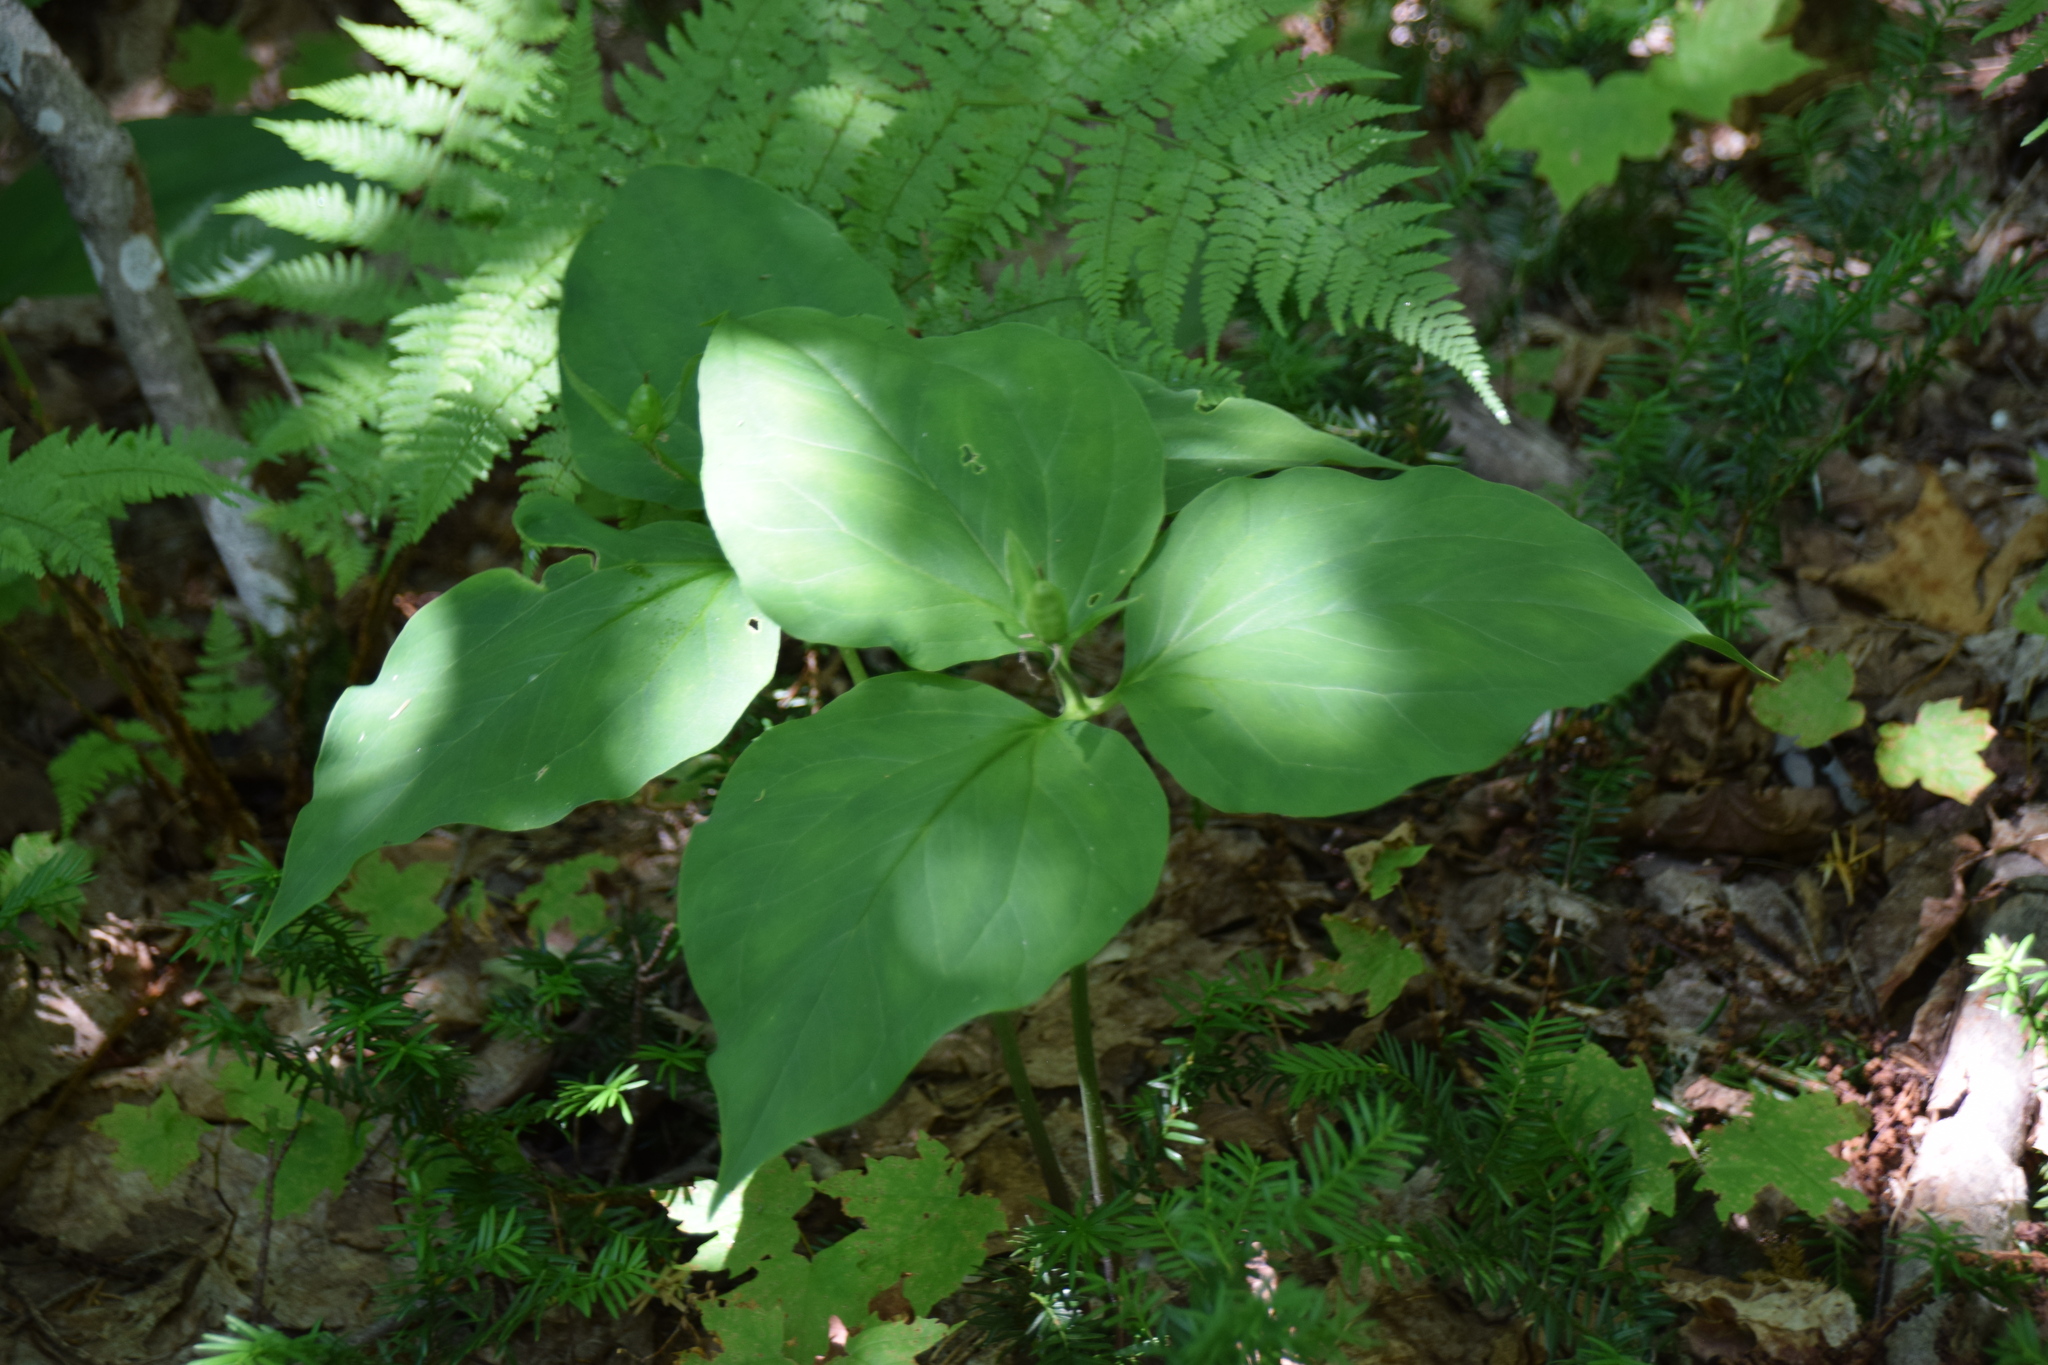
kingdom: Plantae
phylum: Tracheophyta
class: Liliopsida
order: Liliales
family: Melanthiaceae
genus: Trillium
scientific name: Trillium undulatum
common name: Paint trillium
